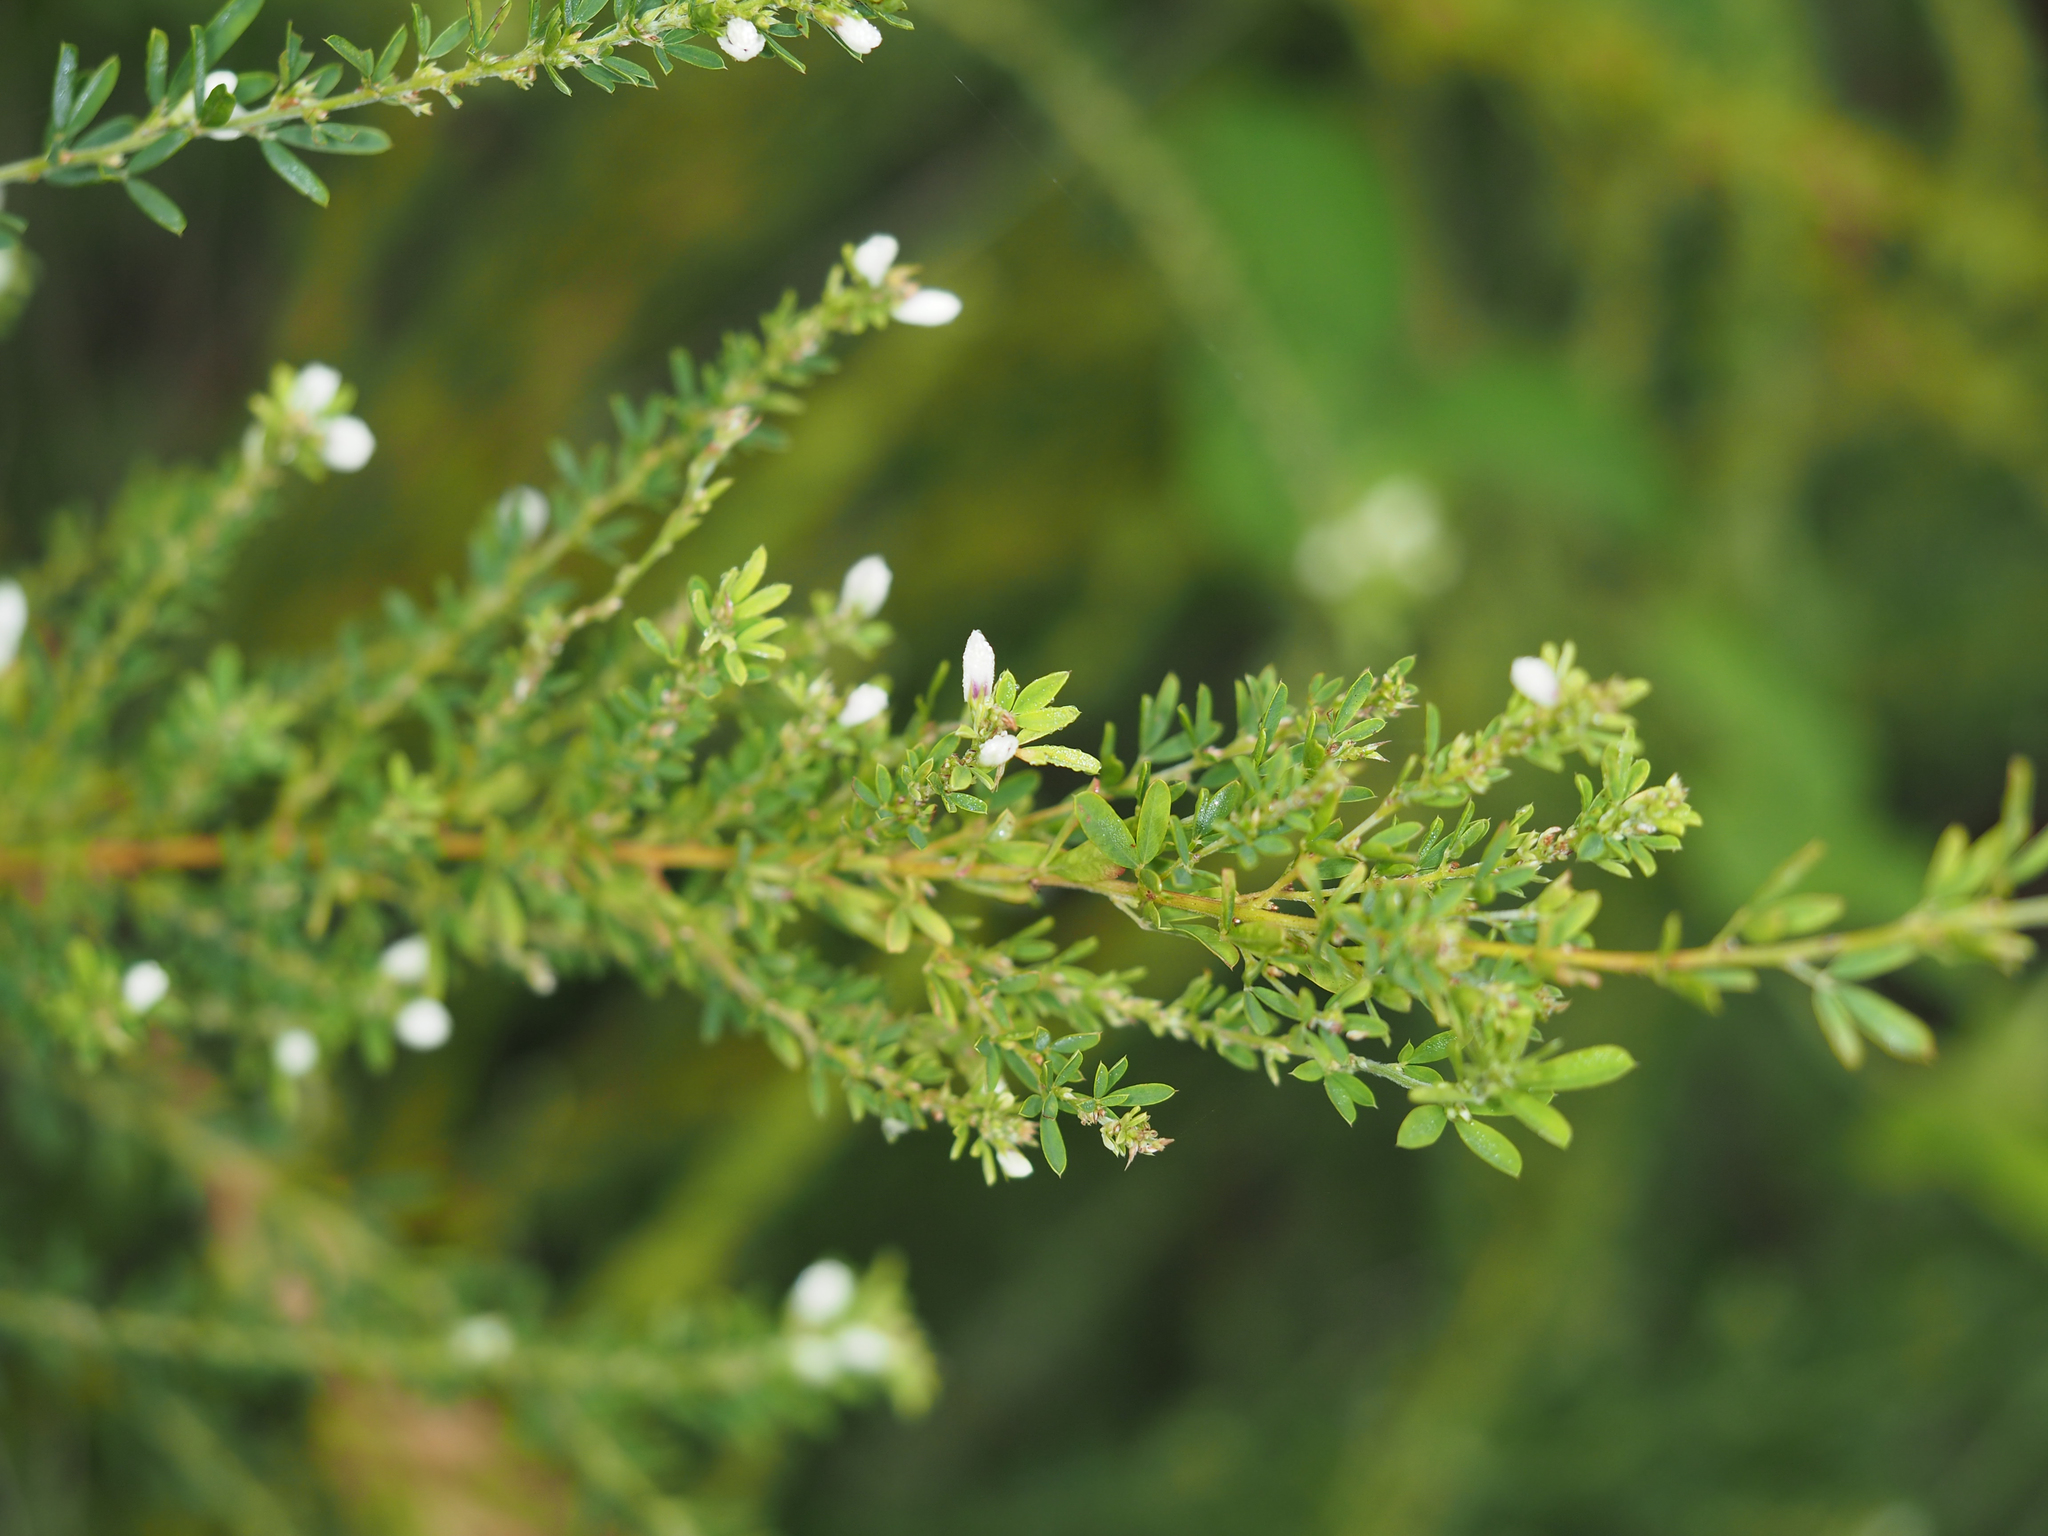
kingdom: Plantae
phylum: Tracheophyta
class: Magnoliopsida
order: Fabales
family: Fabaceae
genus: Lespedeza
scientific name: Lespedeza cuneata
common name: Chinese bush-clover
